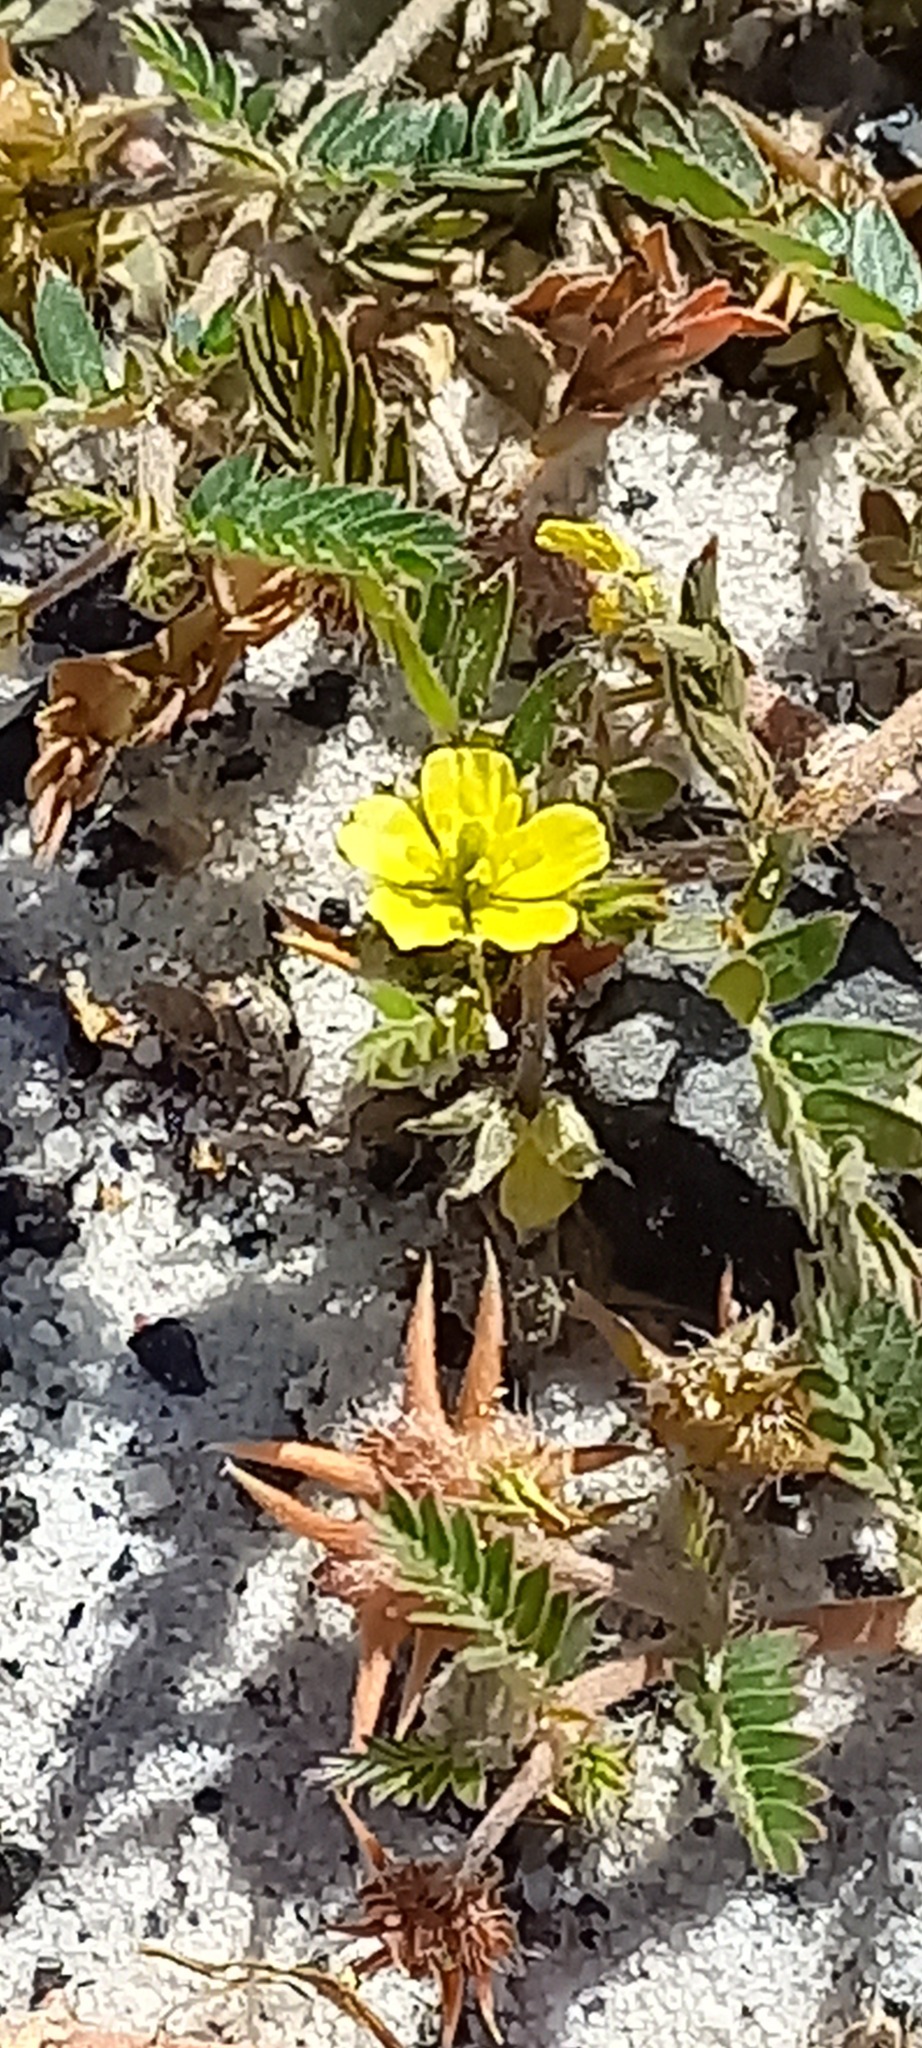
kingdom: Plantae
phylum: Tracheophyta
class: Magnoliopsida
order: Zygophyllales
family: Zygophyllaceae
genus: Tribulus
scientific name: Tribulus terrestris
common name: Puncturevine
